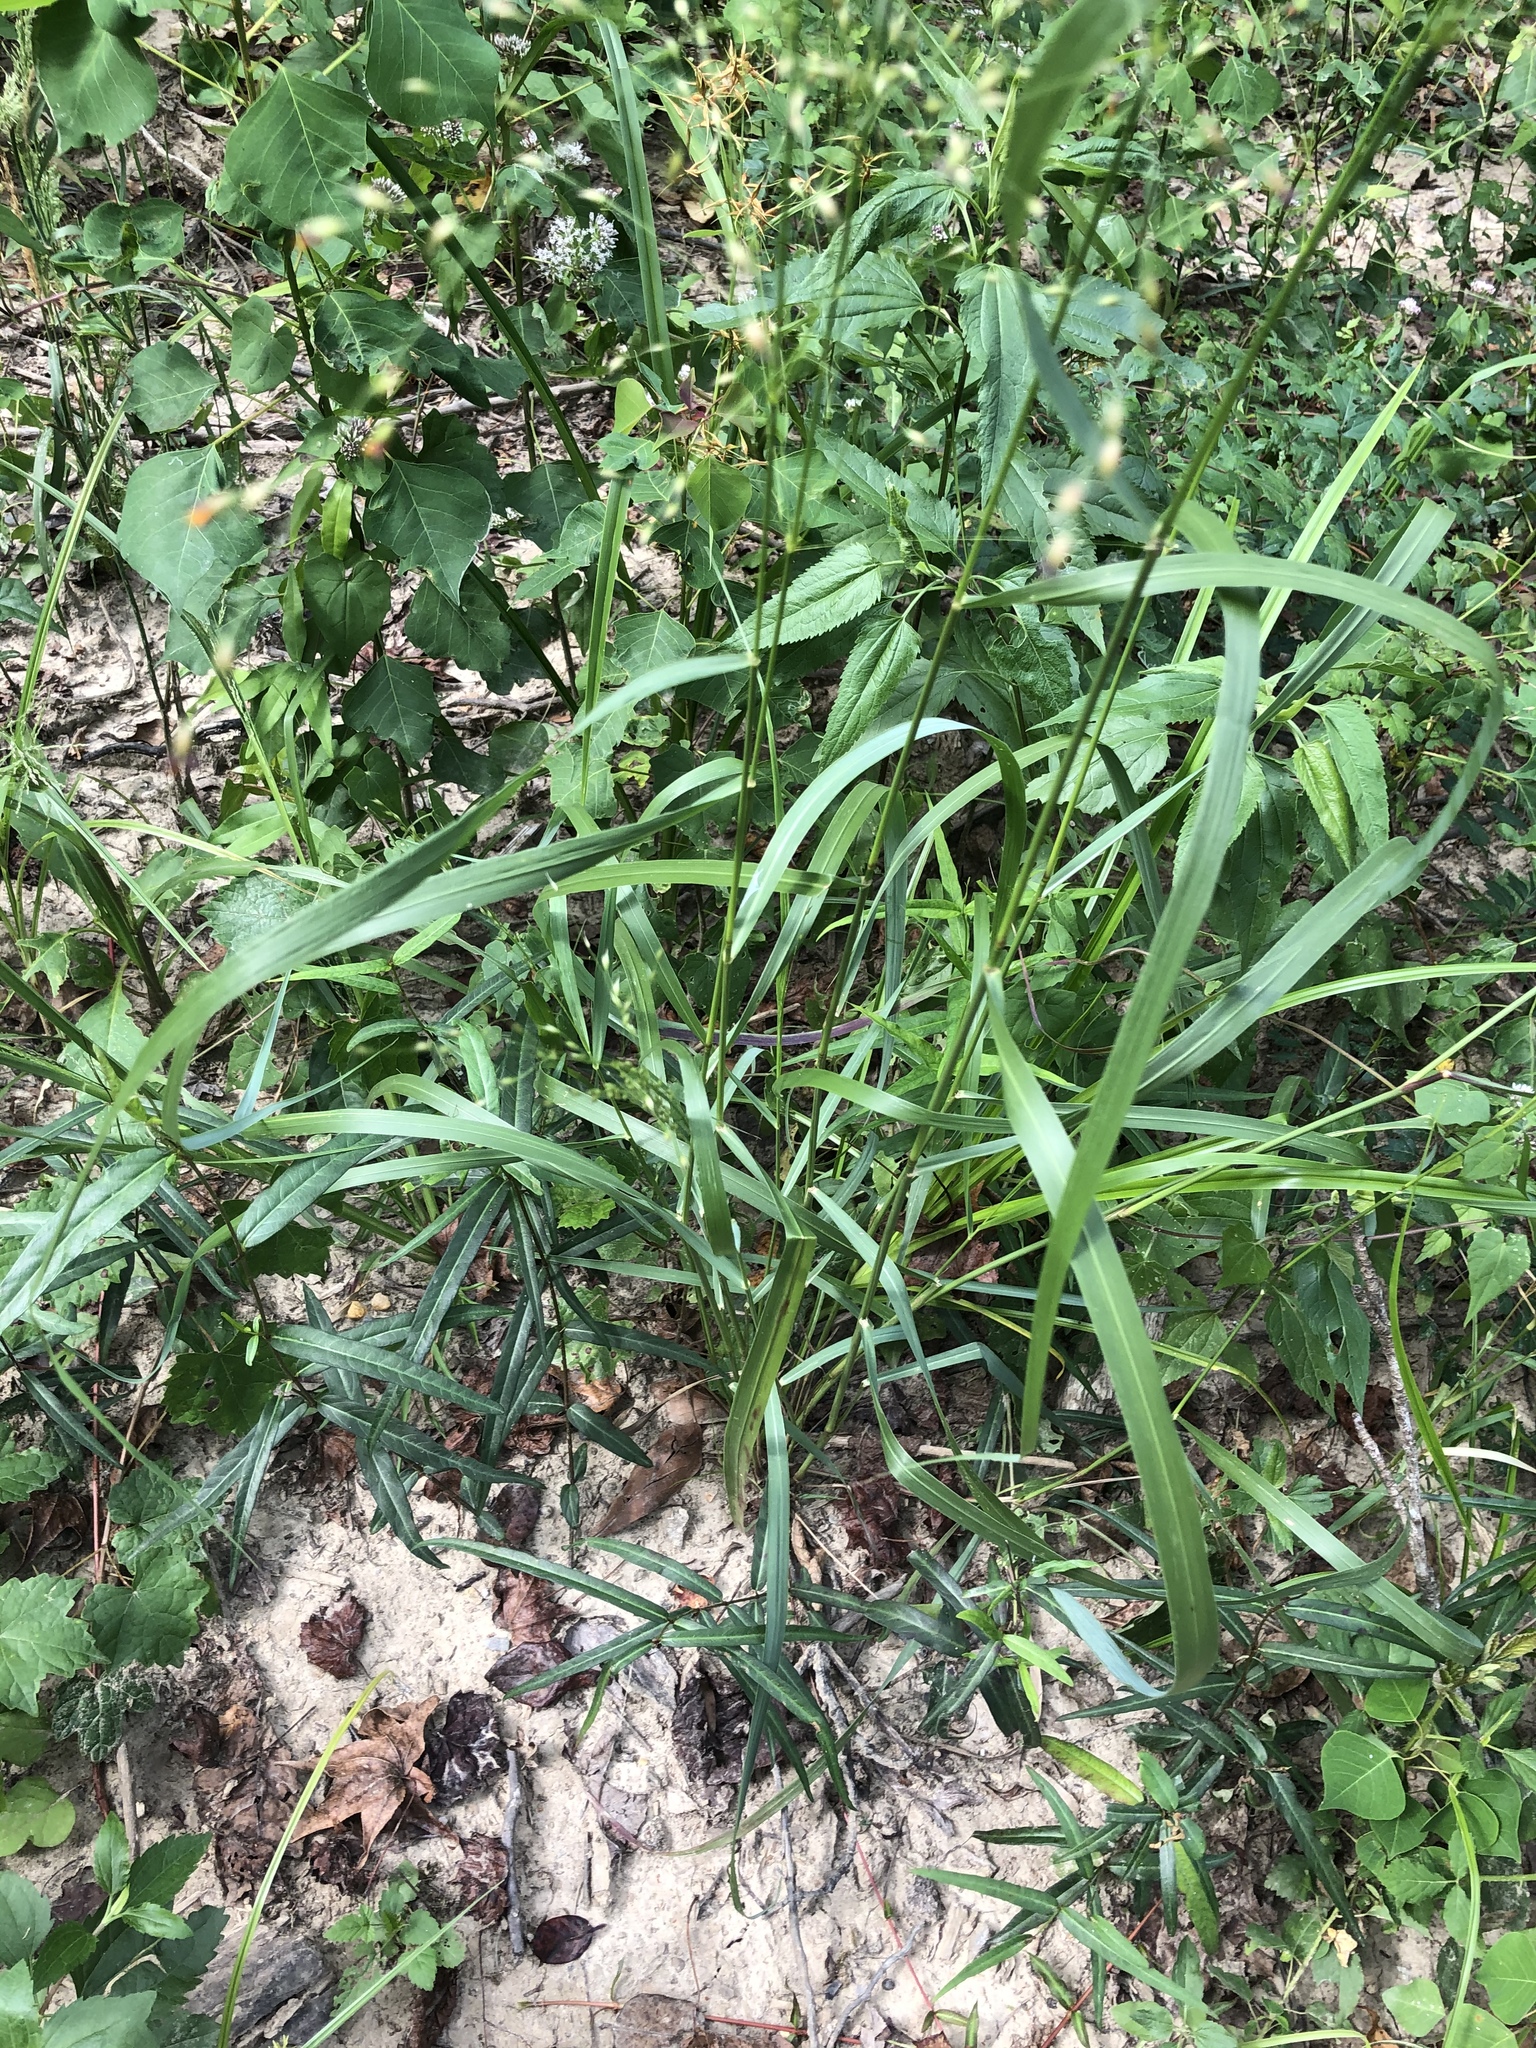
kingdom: Plantae
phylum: Tracheophyta
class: Liliopsida
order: Poales
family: Poaceae
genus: Panicum
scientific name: Panicum virgatum
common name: Switchgrass
